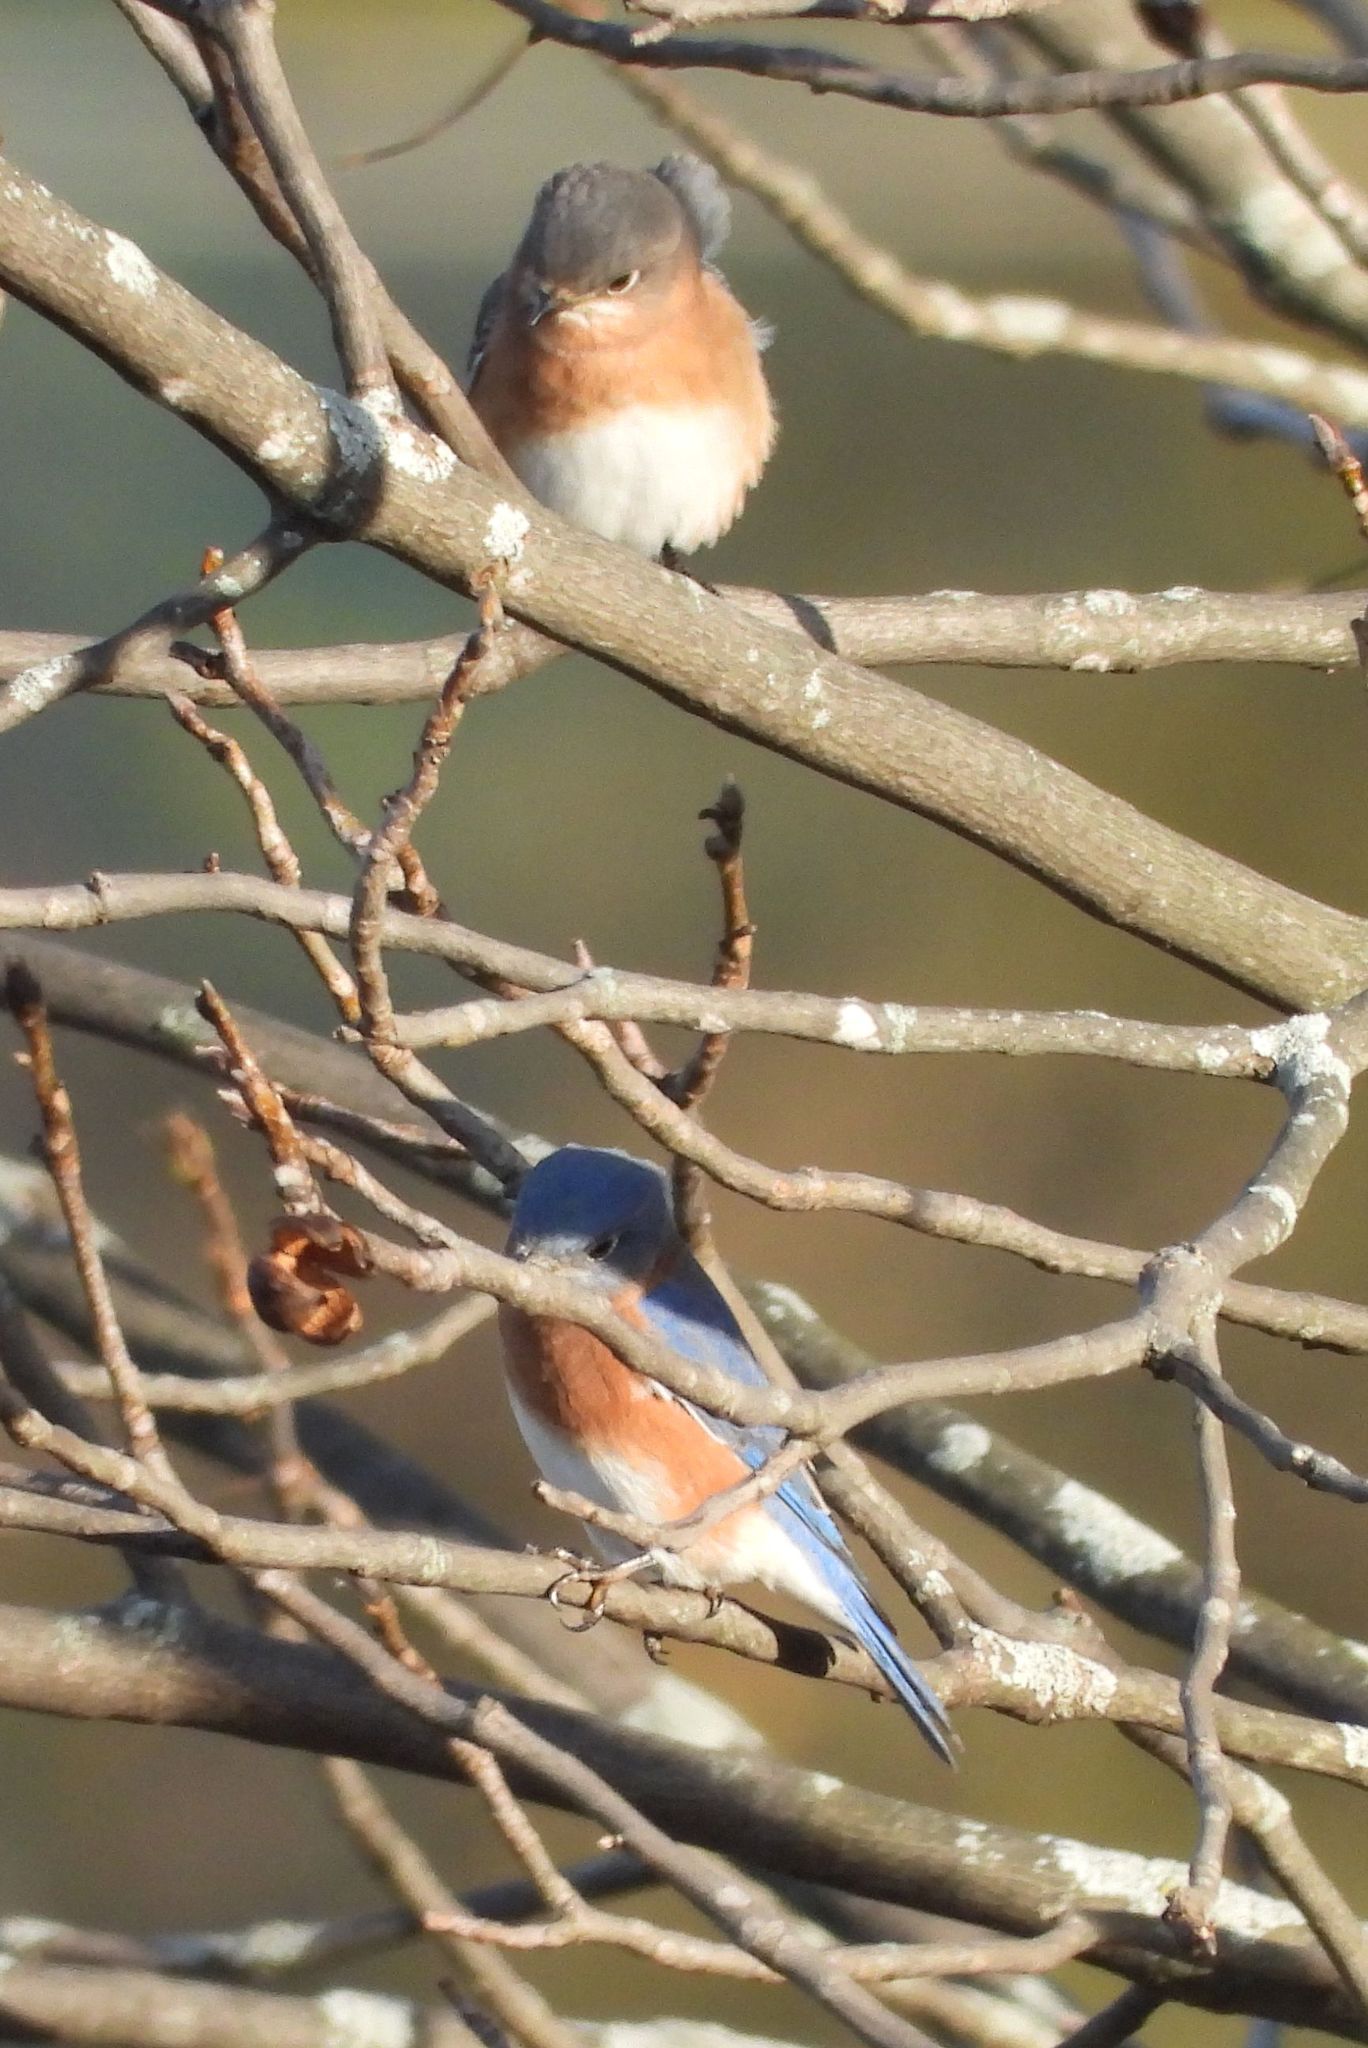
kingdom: Animalia
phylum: Chordata
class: Aves
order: Passeriformes
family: Turdidae
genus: Sialia
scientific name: Sialia sialis
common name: Eastern bluebird
